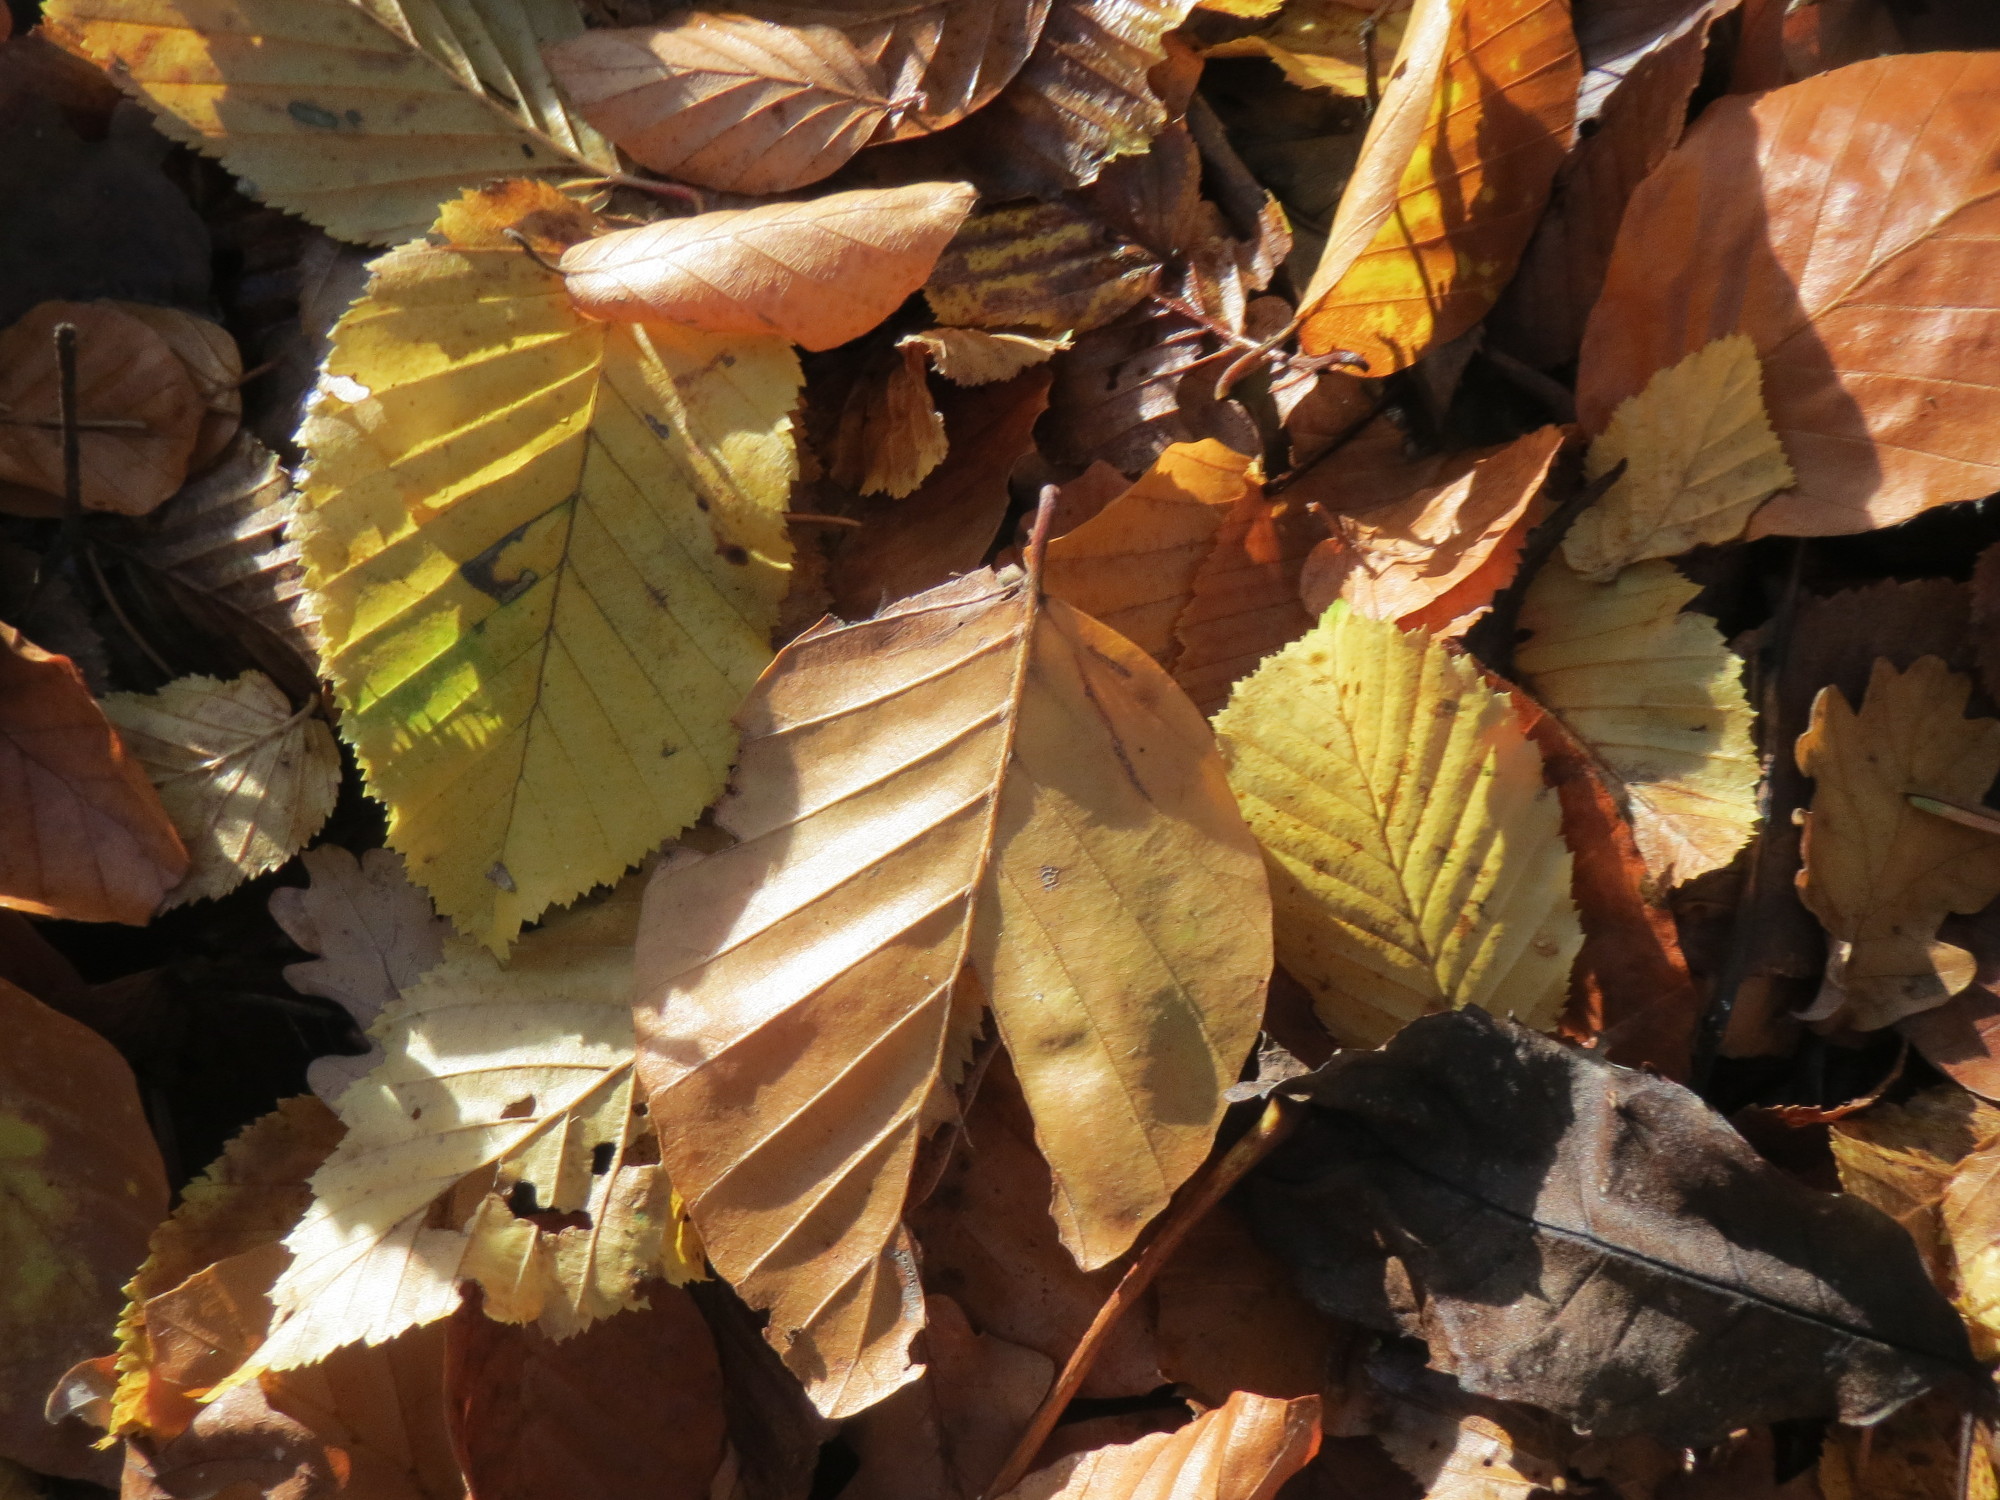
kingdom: Plantae
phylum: Tracheophyta
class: Magnoliopsida
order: Fagales
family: Fagaceae
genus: Fagus
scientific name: Fagus sylvatica
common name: Beech
